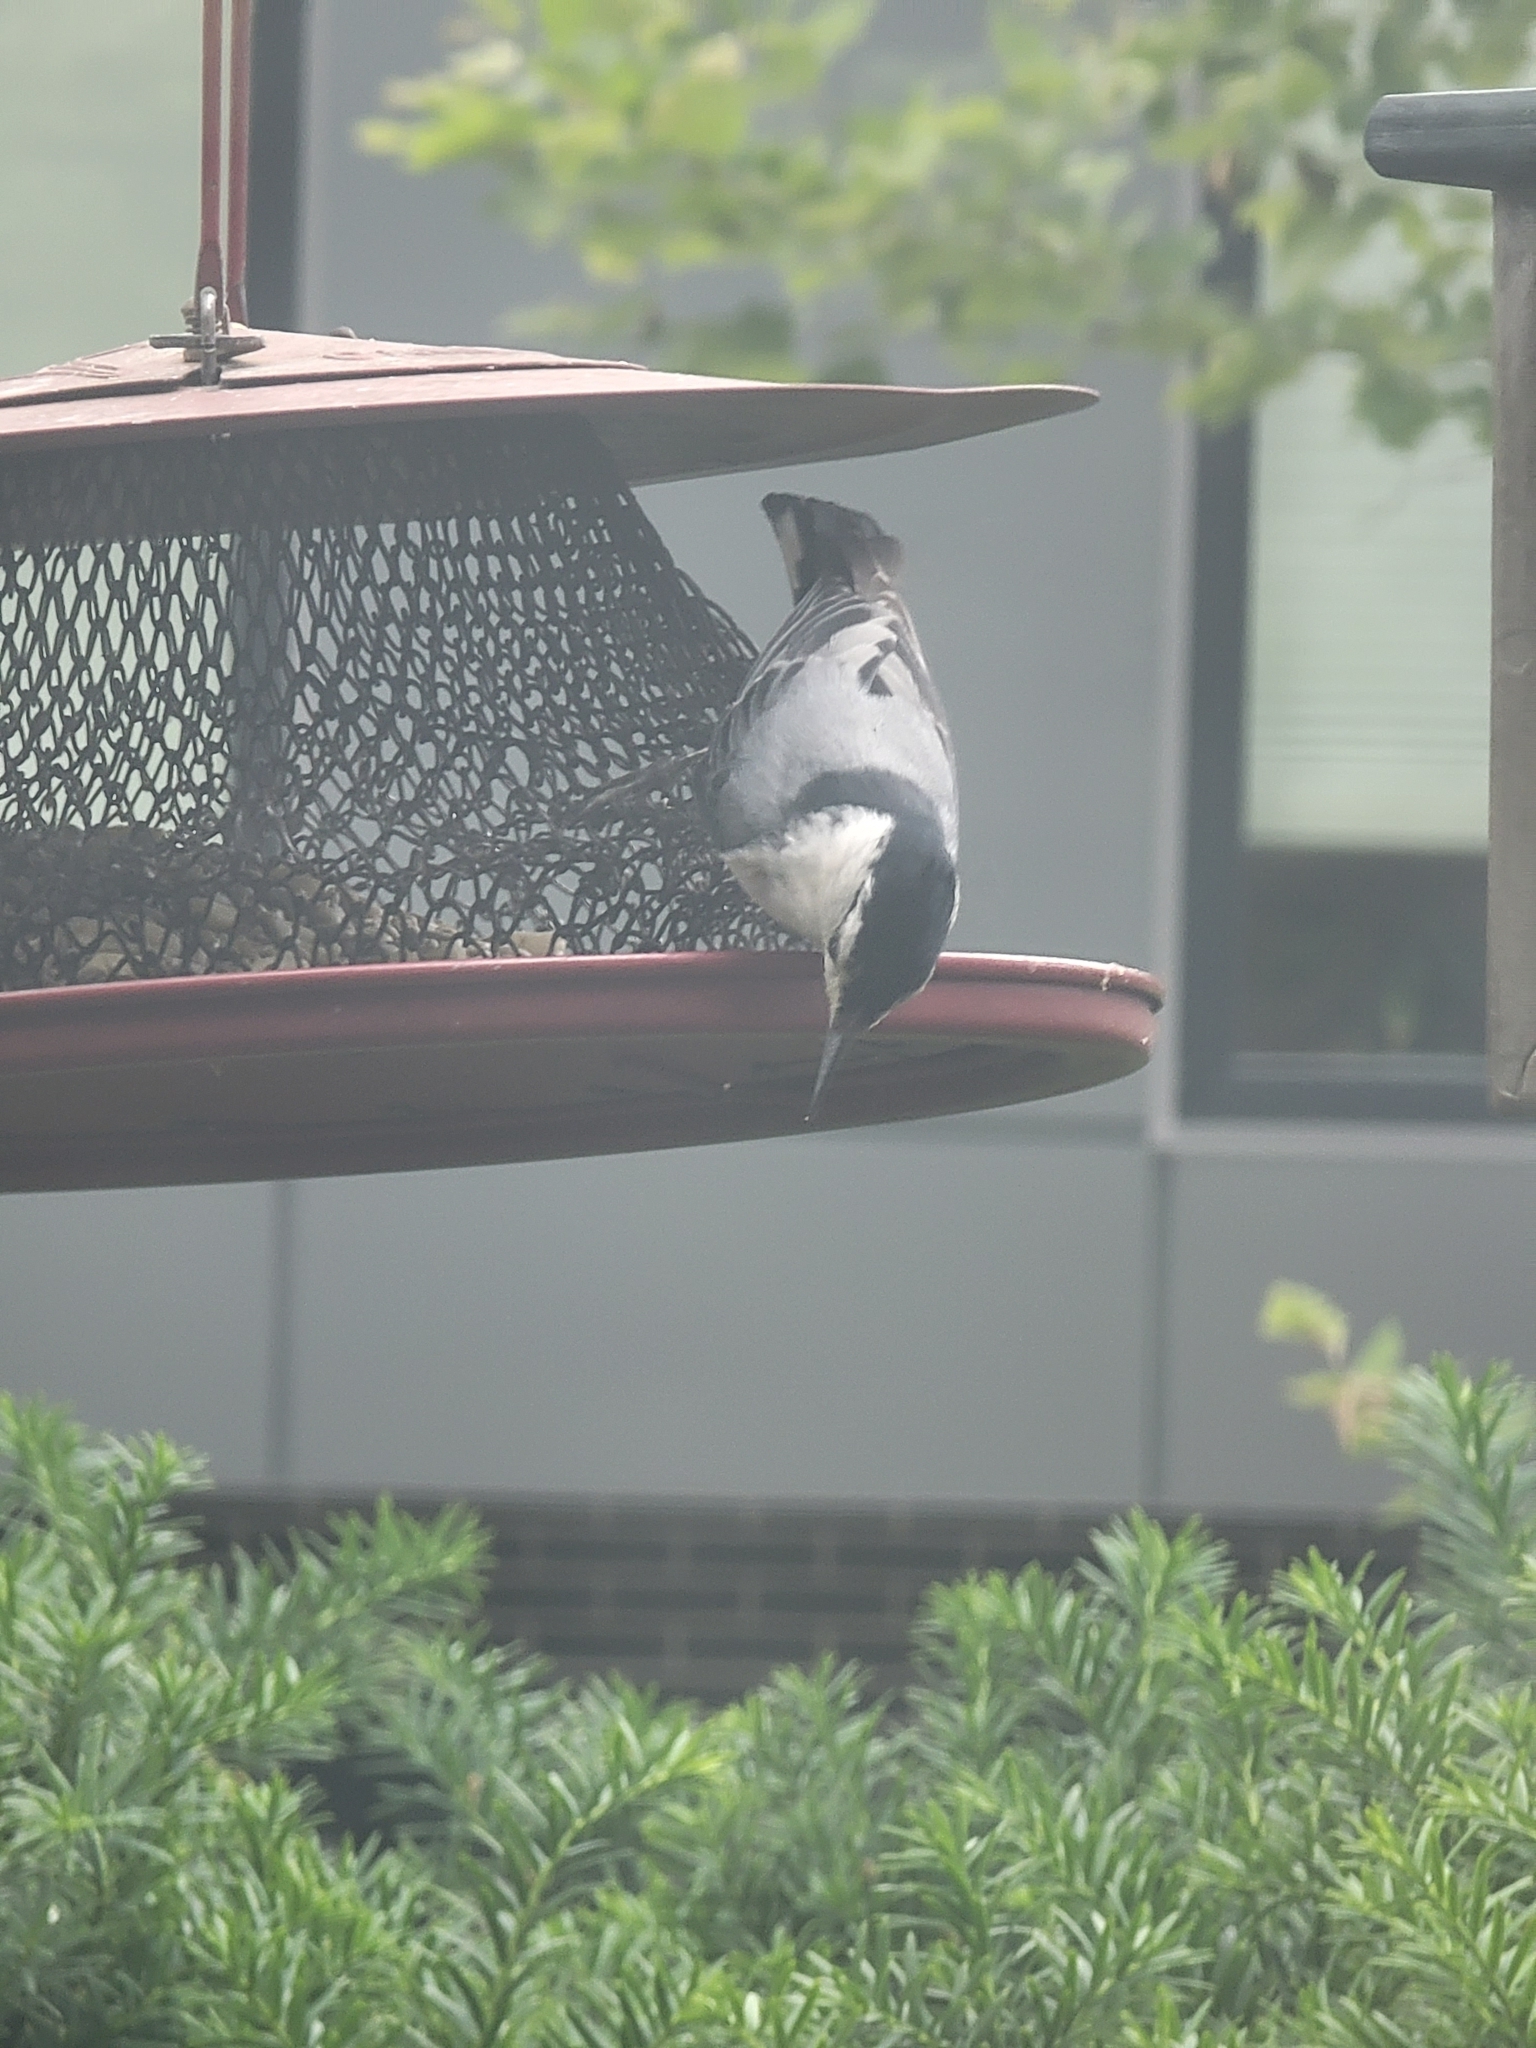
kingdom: Animalia
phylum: Chordata
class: Aves
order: Passeriformes
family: Sittidae
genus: Sitta
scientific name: Sitta carolinensis
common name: White-breasted nuthatch
